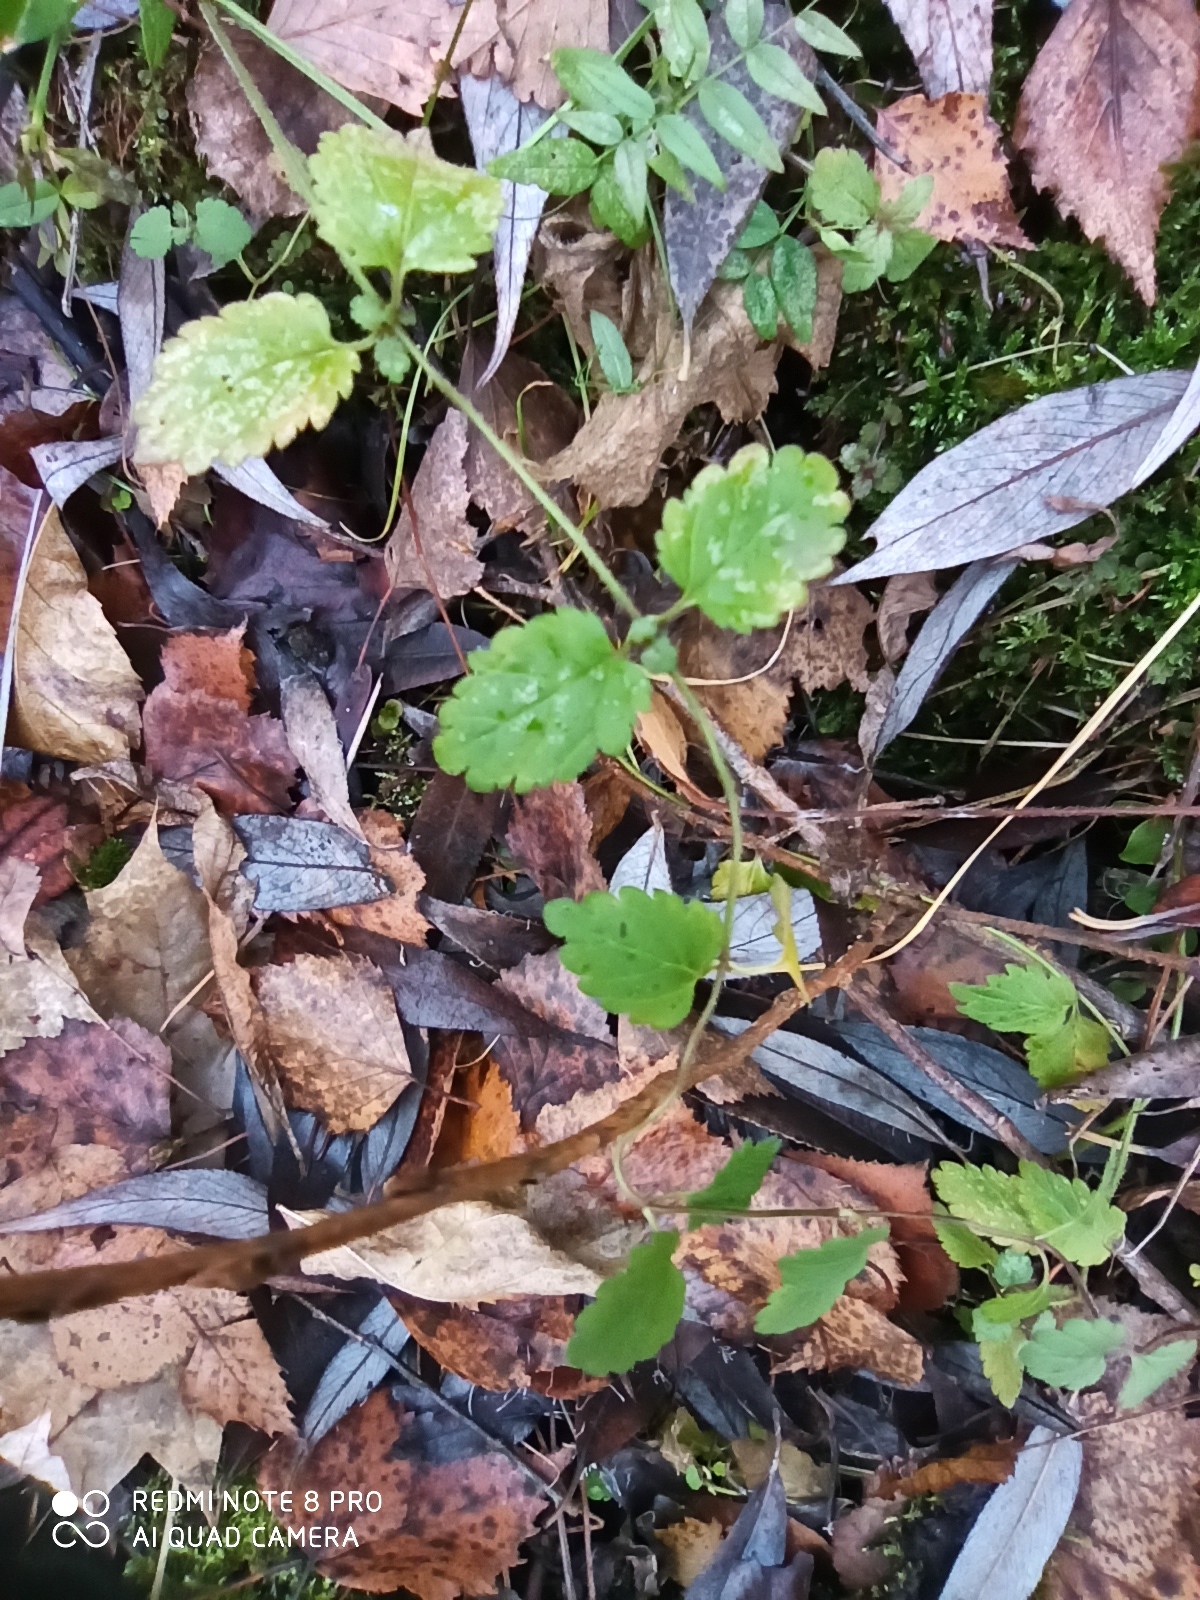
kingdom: Plantae
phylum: Tracheophyta
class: Magnoliopsida
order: Lamiales
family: Plantaginaceae
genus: Veronica
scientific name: Veronica chamaedrys
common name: Germander speedwell
